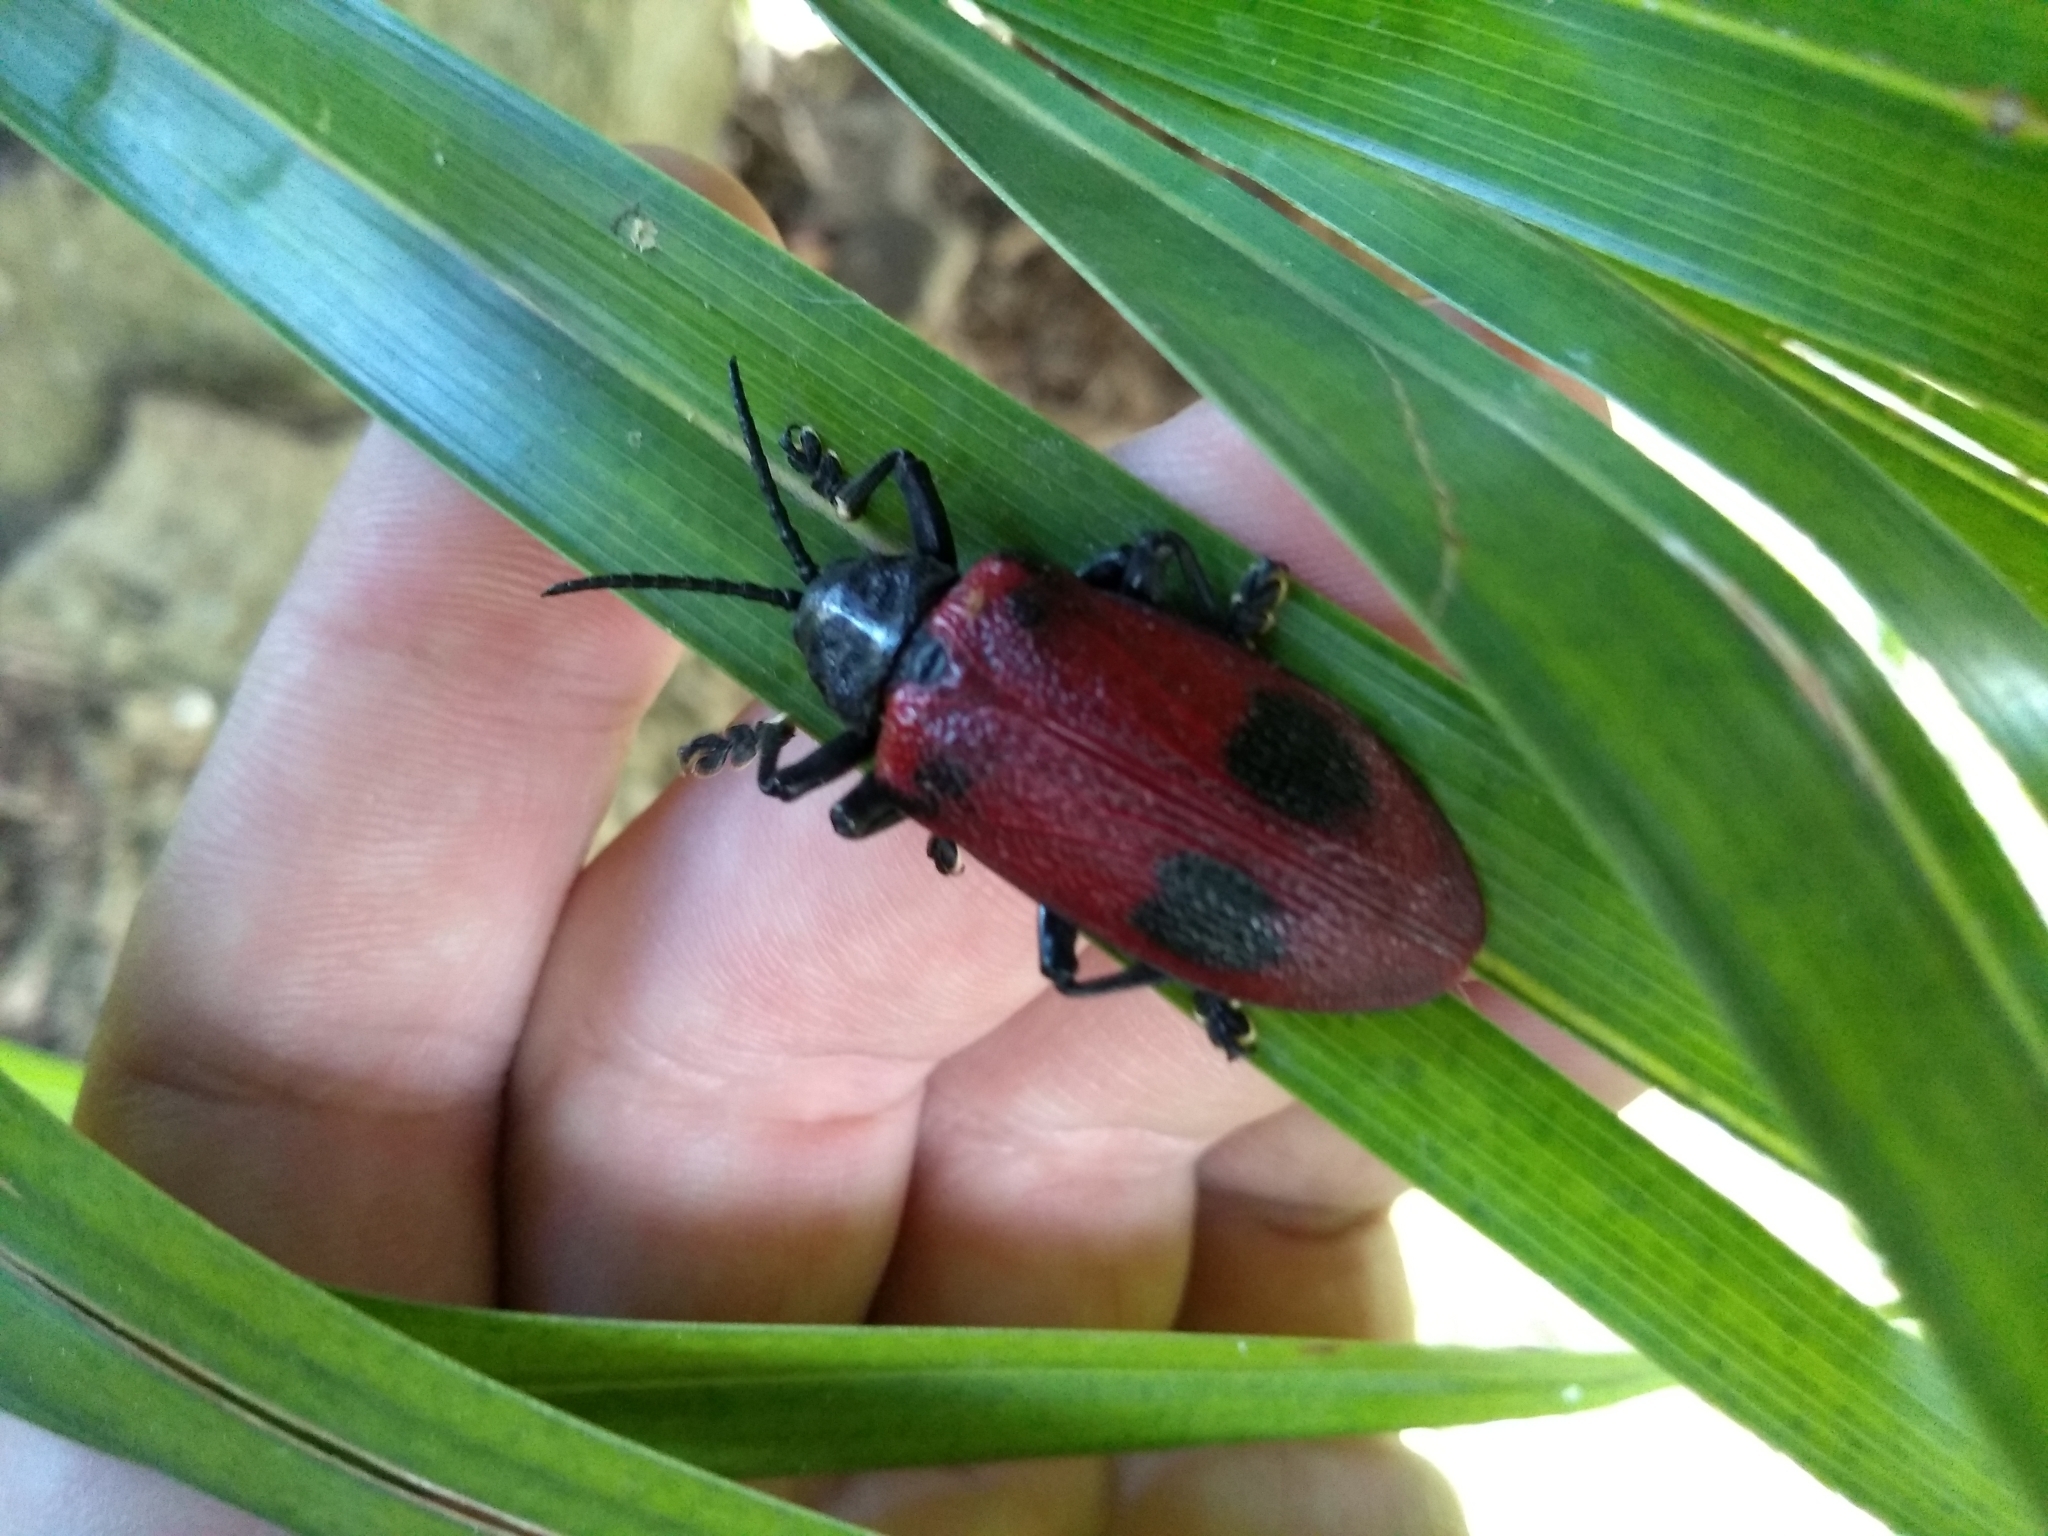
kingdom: Animalia
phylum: Arthropoda
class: Insecta
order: Coleoptera
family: Chrysomelidae
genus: Coraliomela
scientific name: Coraliomela quadrimaculata
